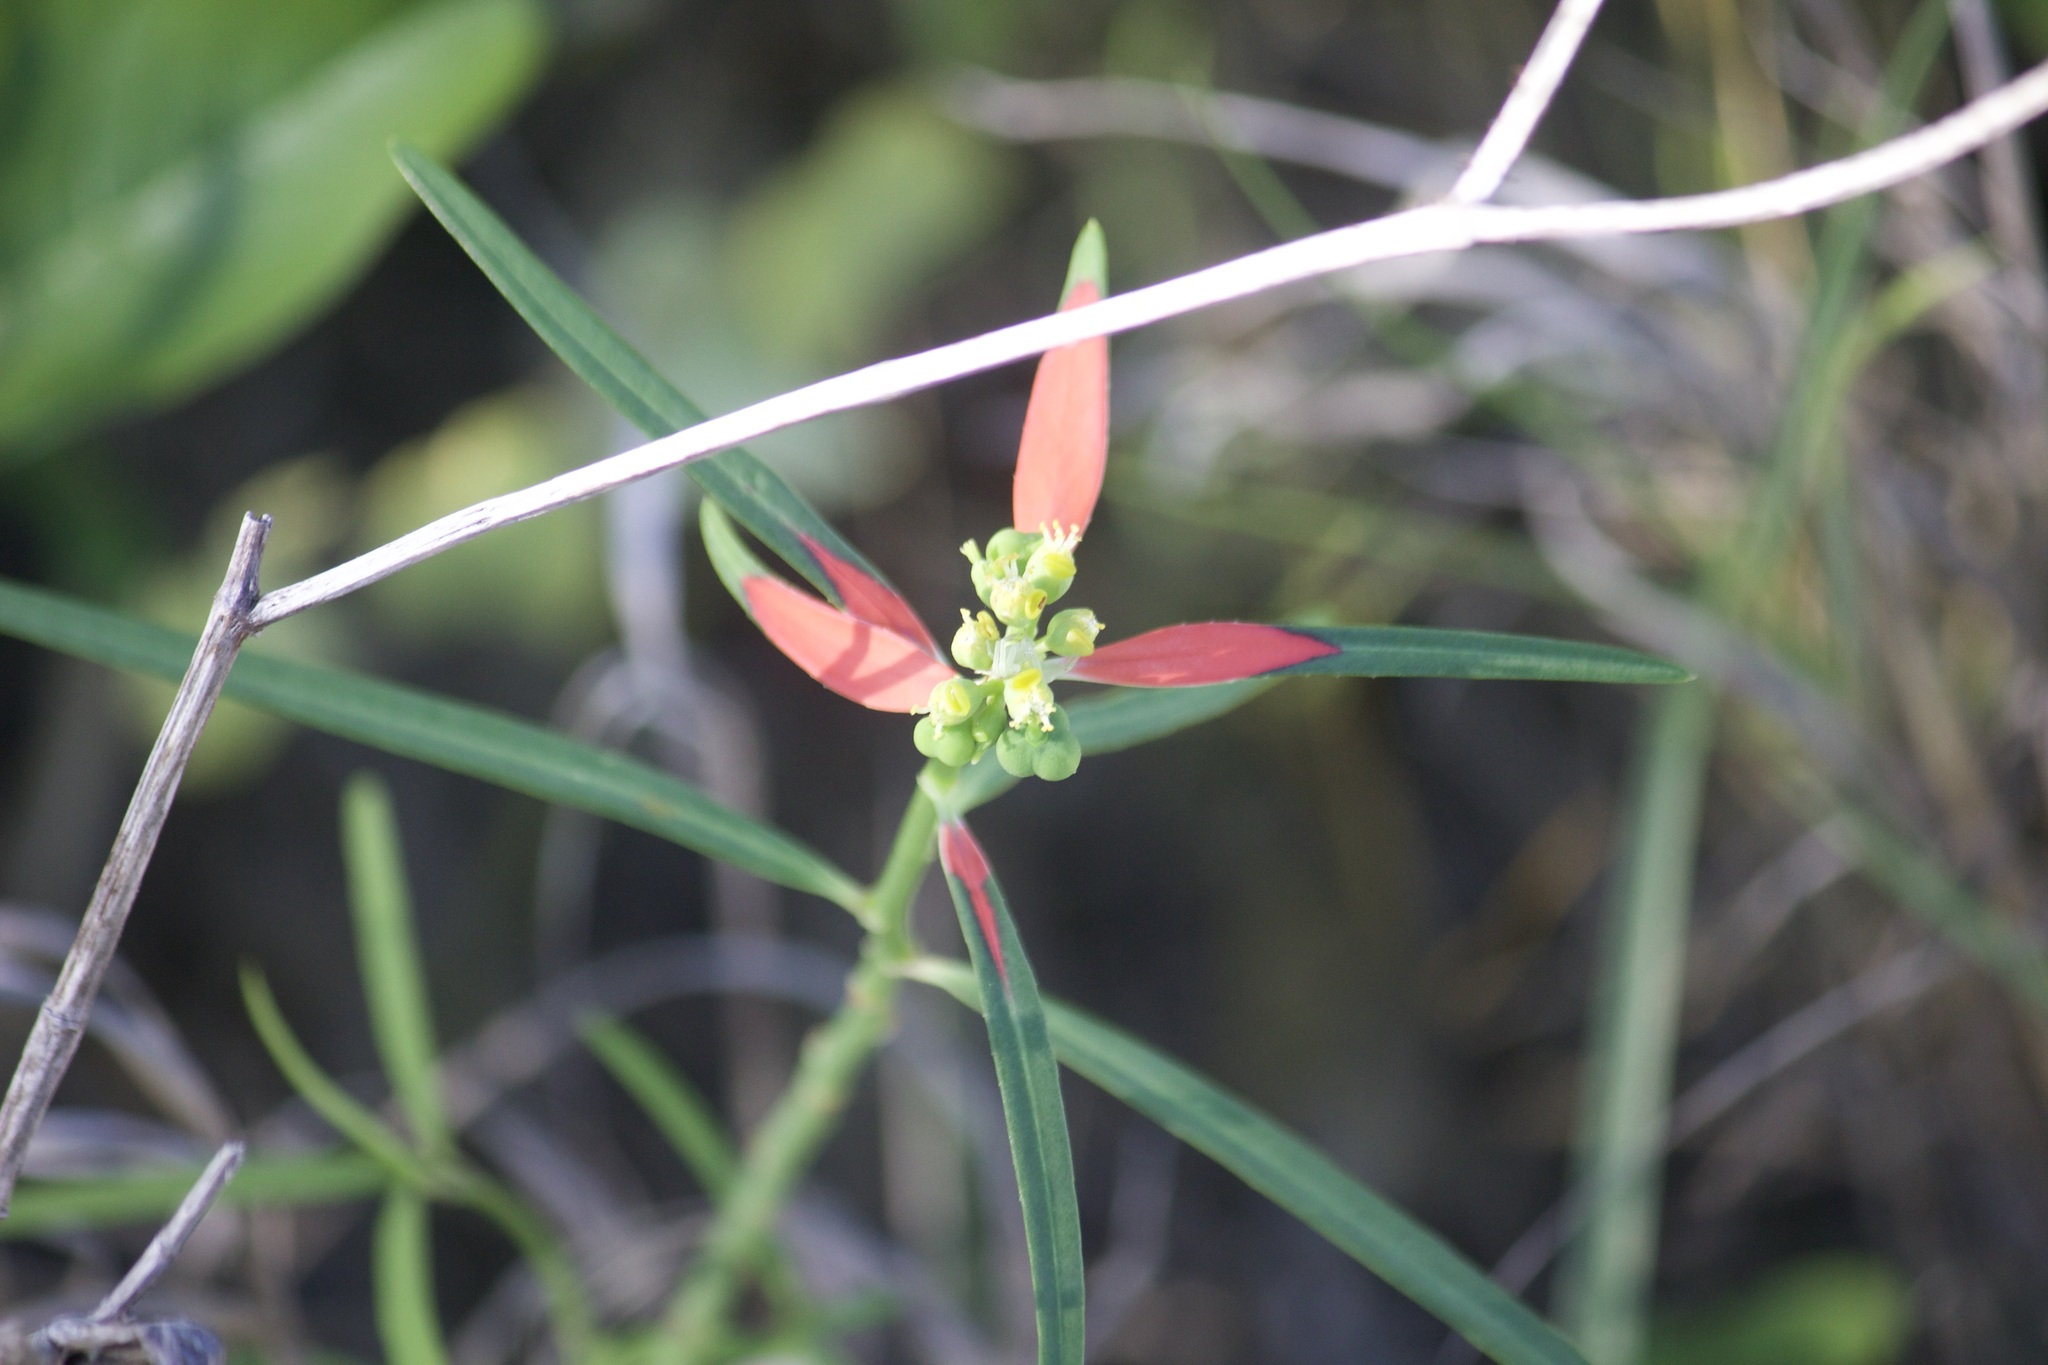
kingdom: Plantae
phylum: Tracheophyta
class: Magnoliopsida
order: Malpighiales
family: Euphorbiaceae
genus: Euphorbia
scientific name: Euphorbia heterophylla
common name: Mexican fireplant
